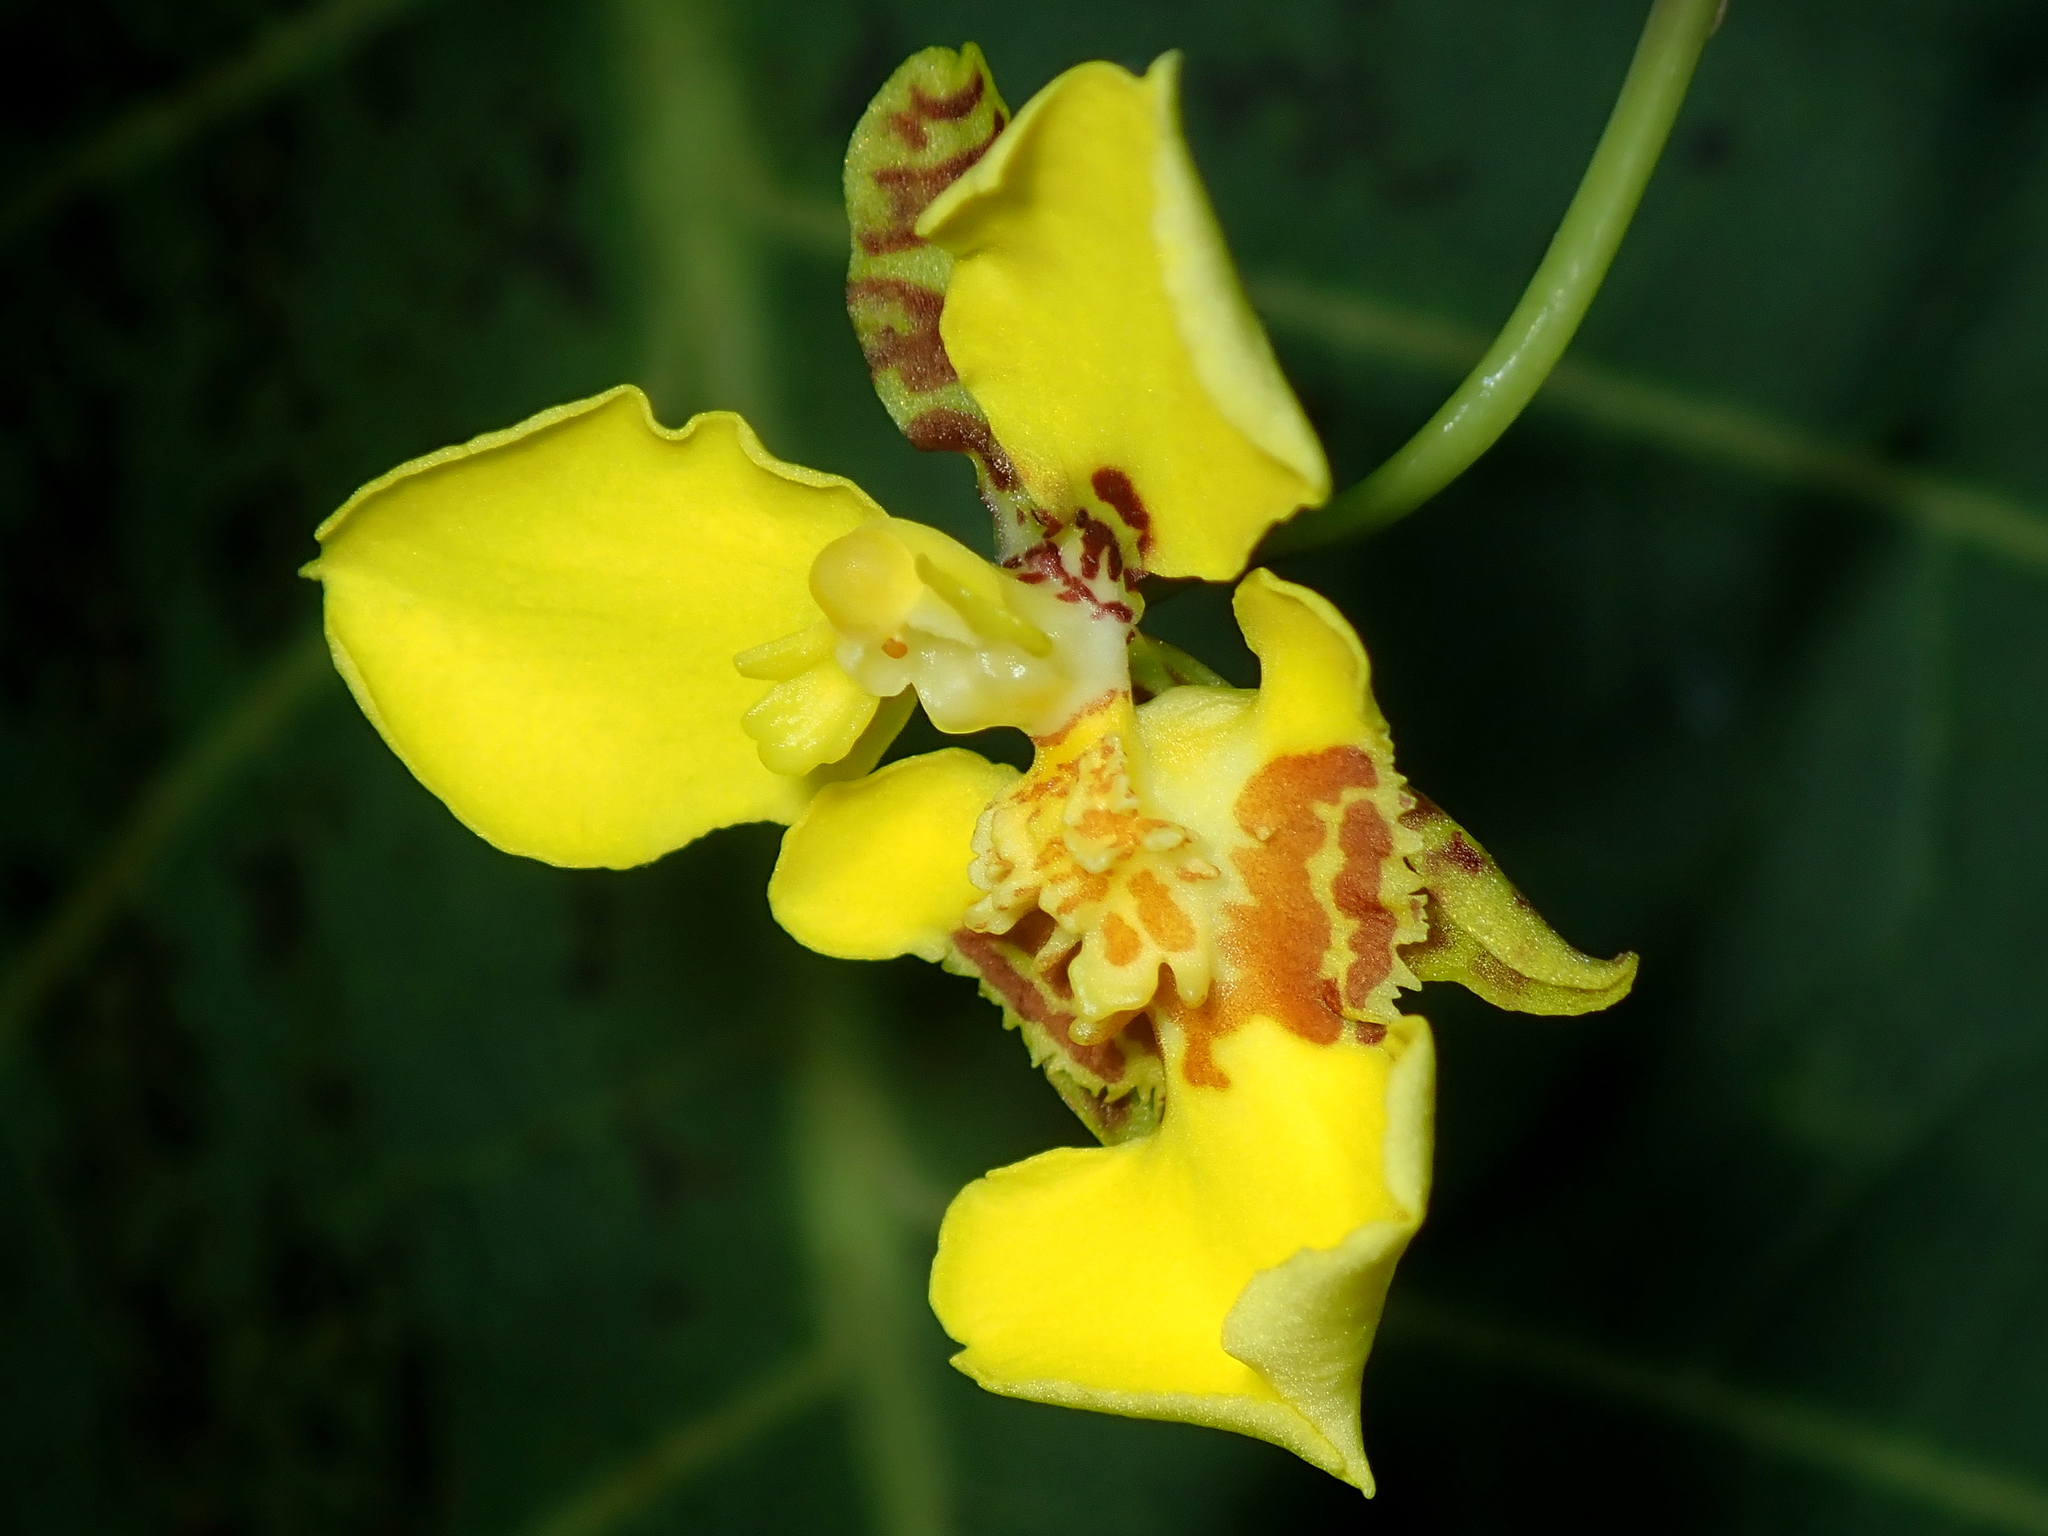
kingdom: Plantae
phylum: Tracheophyta
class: Liliopsida
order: Asparagales
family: Orchidaceae
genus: Gomesa
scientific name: Gomesa macropetala
